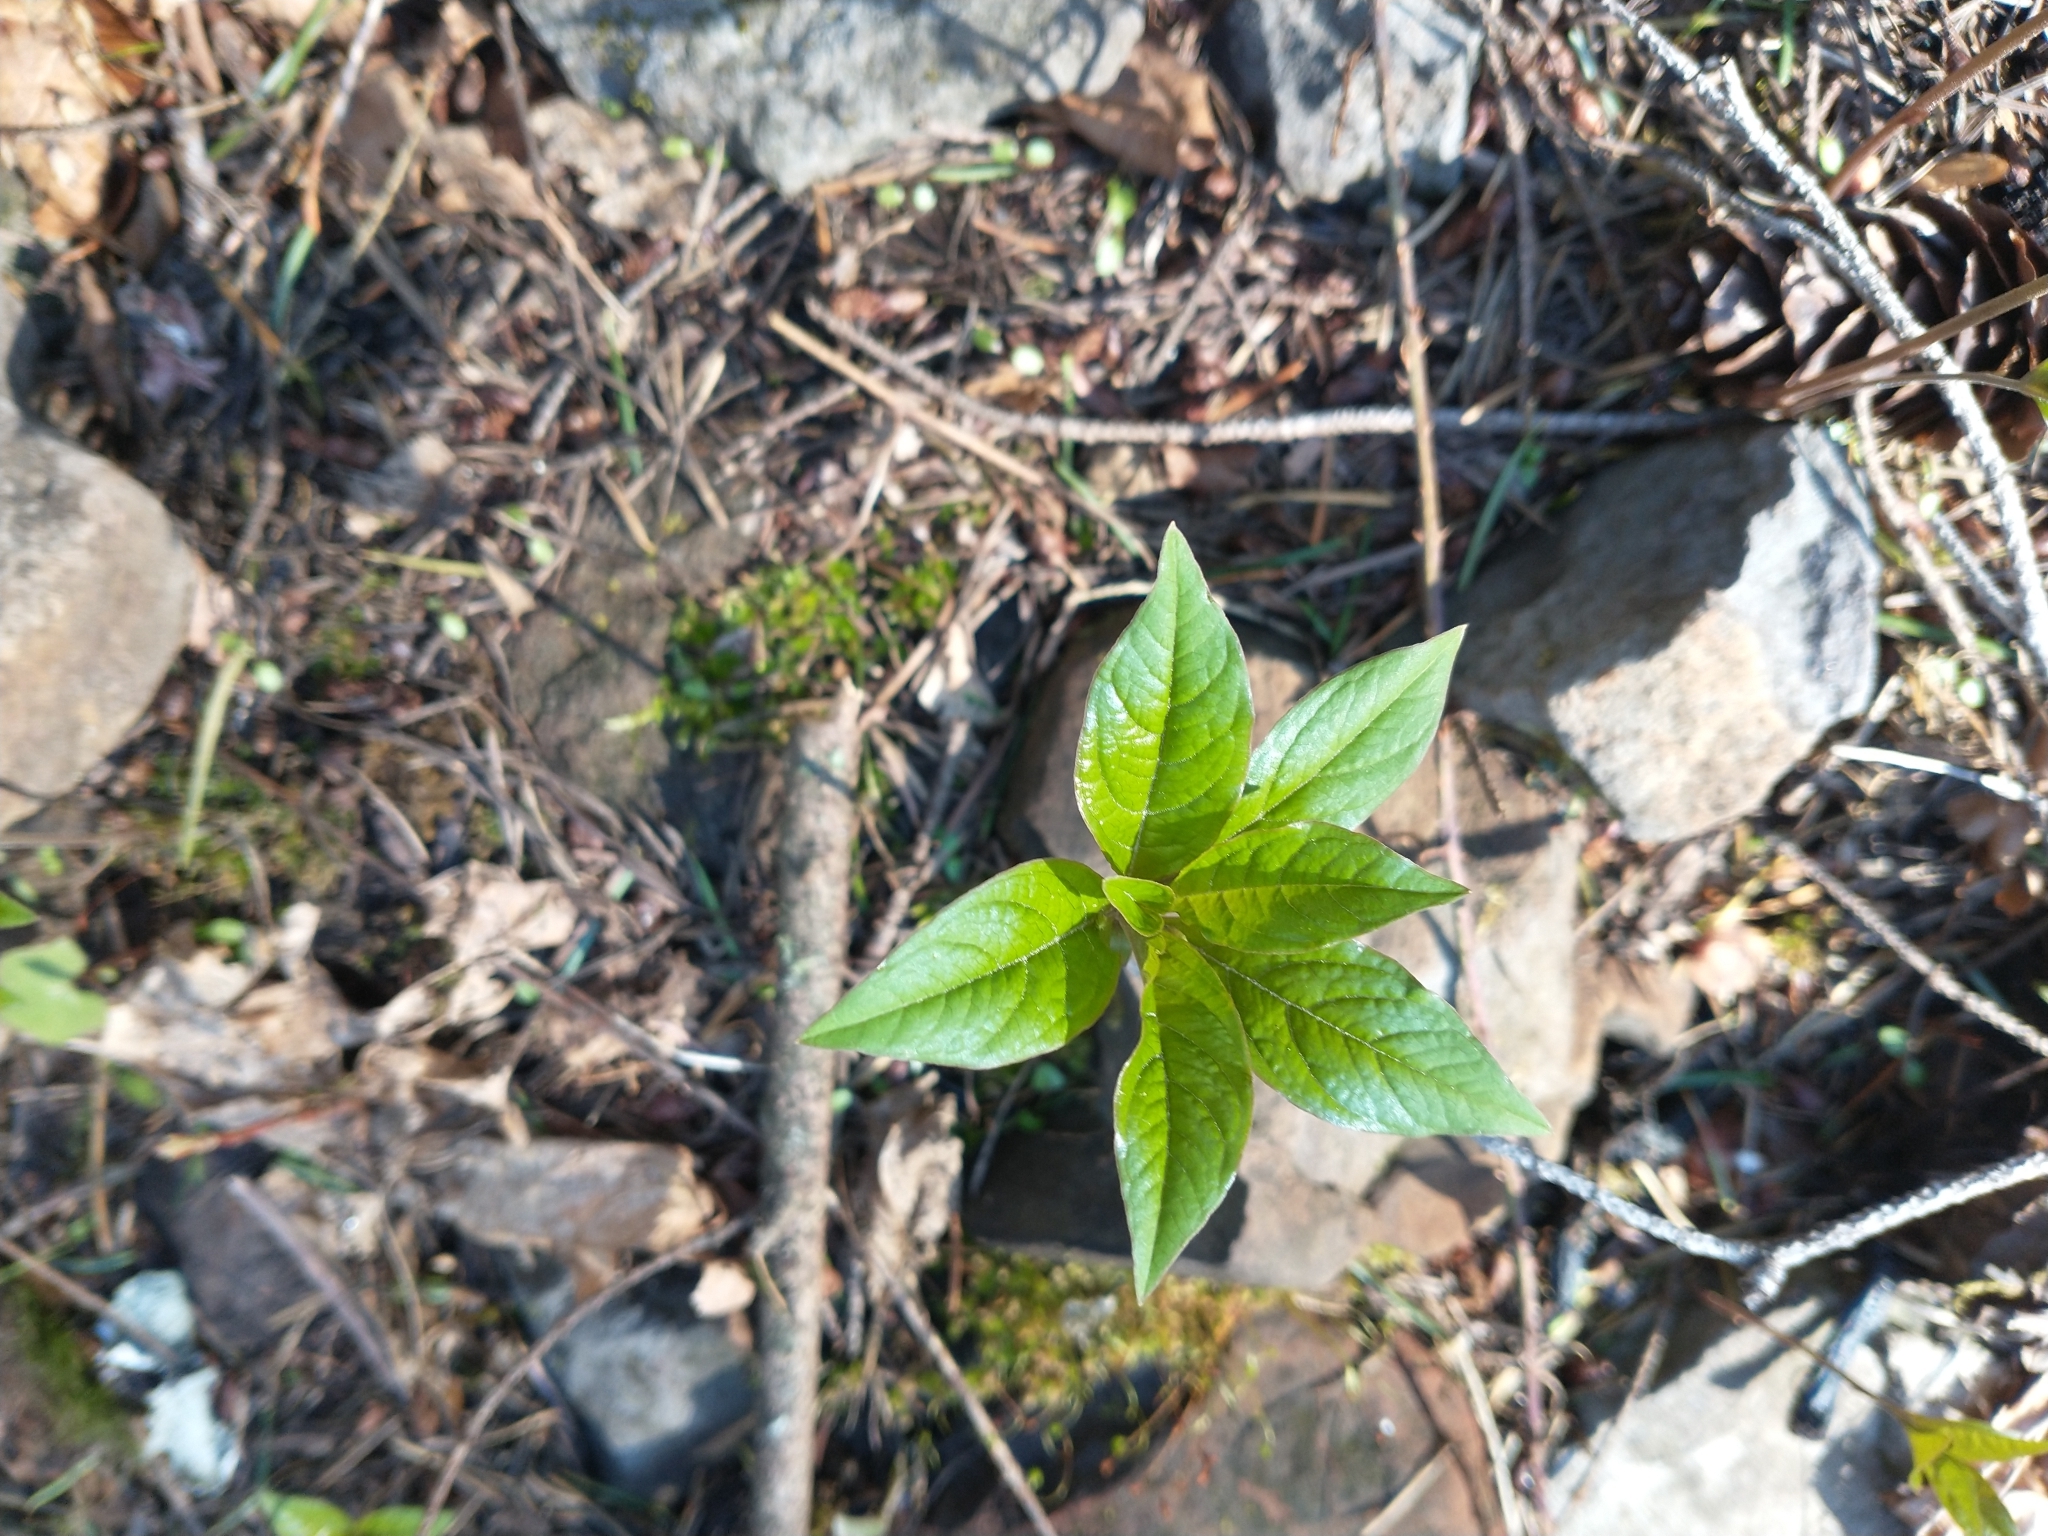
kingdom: Plantae
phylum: Tracheophyta
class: Magnoliopsida
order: Ericales
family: Primulaceae
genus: Lysimachia
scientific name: Lysimachia latifolia
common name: Pacific starflower
